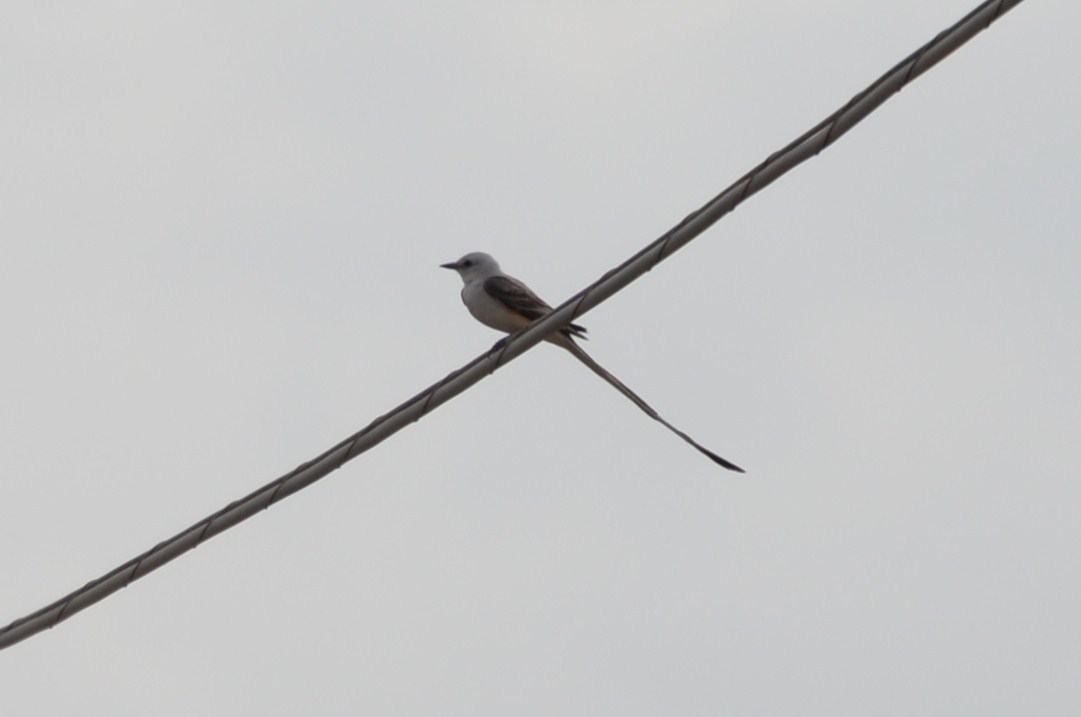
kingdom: Animalia
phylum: Chordata
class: Aves
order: Passeriformes
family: Tyrannidae
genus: Tyrannus
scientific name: Tyrannus forficatus
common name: Scissor-tailed flycatcher
